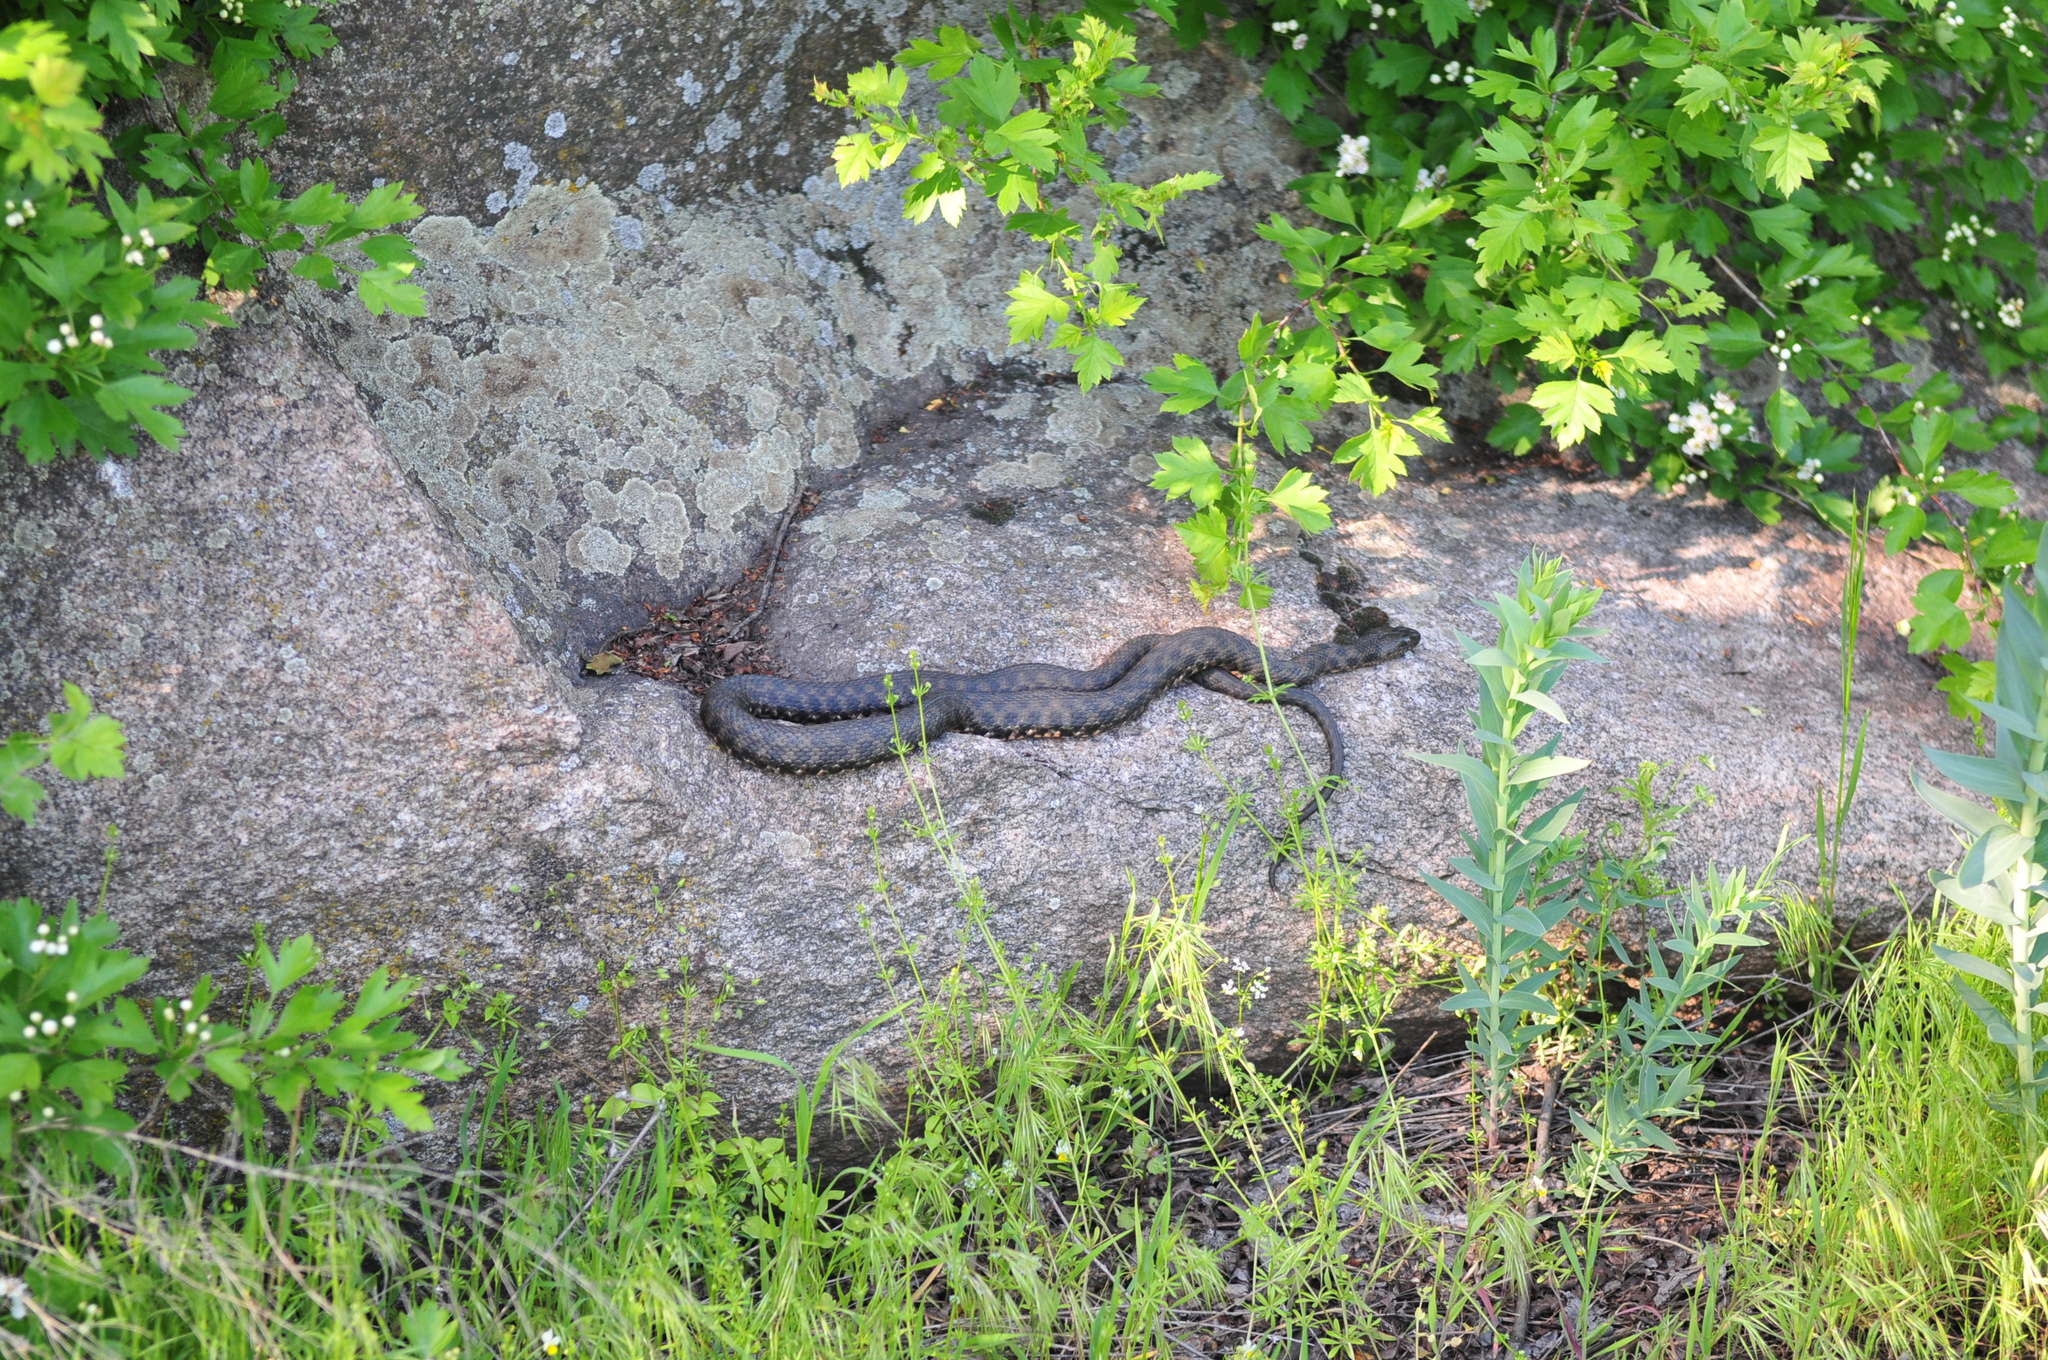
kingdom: Animalia
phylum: Chordata
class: Squamata
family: Colubridae
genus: Natrix
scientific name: Natrix tessellata
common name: Dice snake
